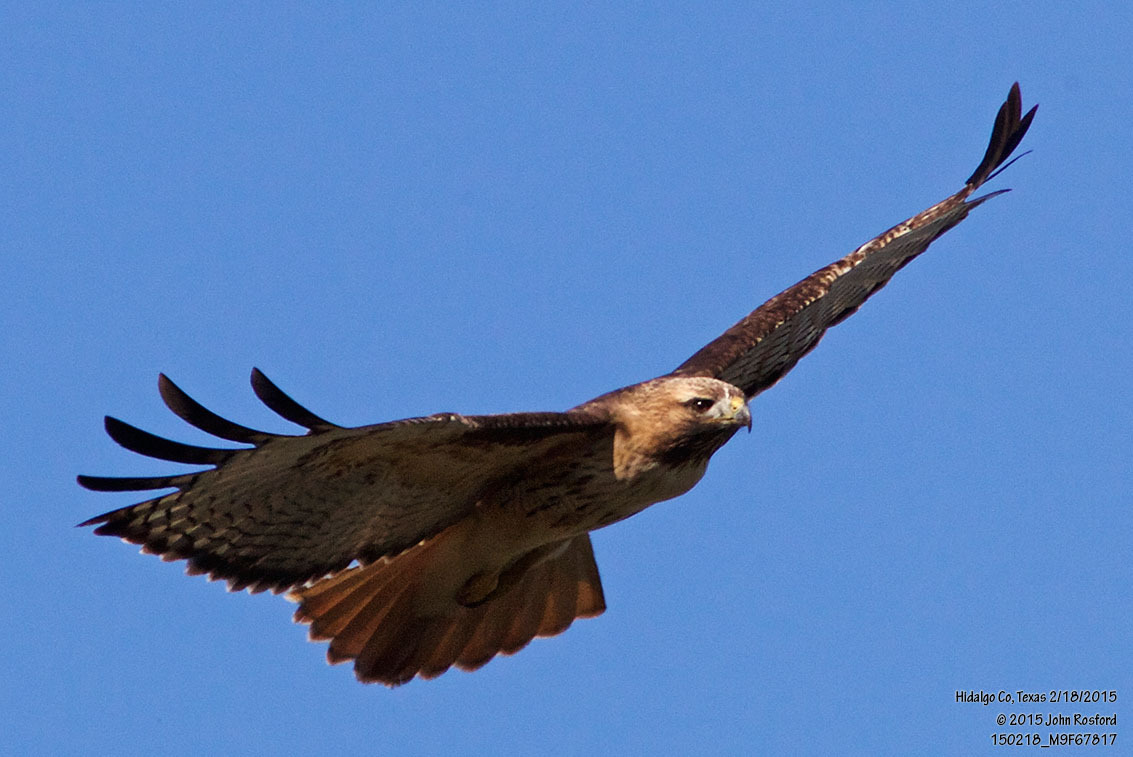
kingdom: Animalia
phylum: Chordata
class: Aves
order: Accipitriformes
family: Accipitridae
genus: Buteo
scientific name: Buteo jamaicensis
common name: Red-tailed hawk
